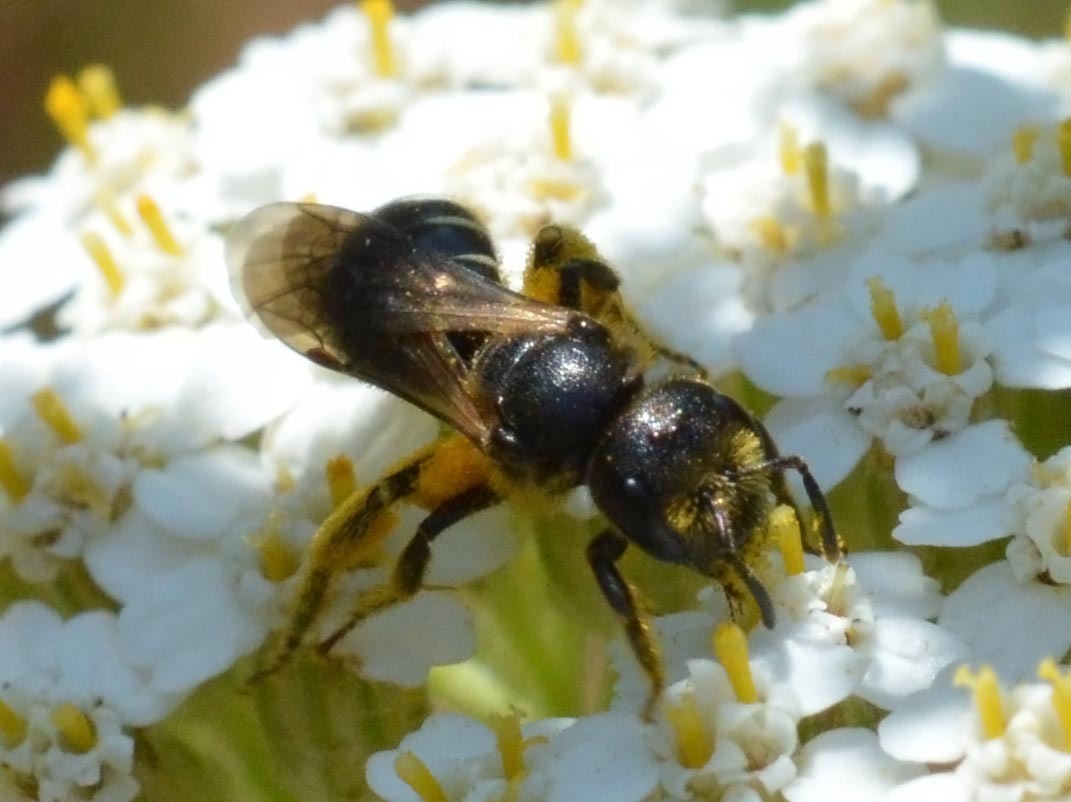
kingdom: Animalia
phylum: Arthropoda
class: Insecta
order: Hymenoptera
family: Halictidae
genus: Halictus
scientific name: Halictus maculatus
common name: Box-heades furrow bee
